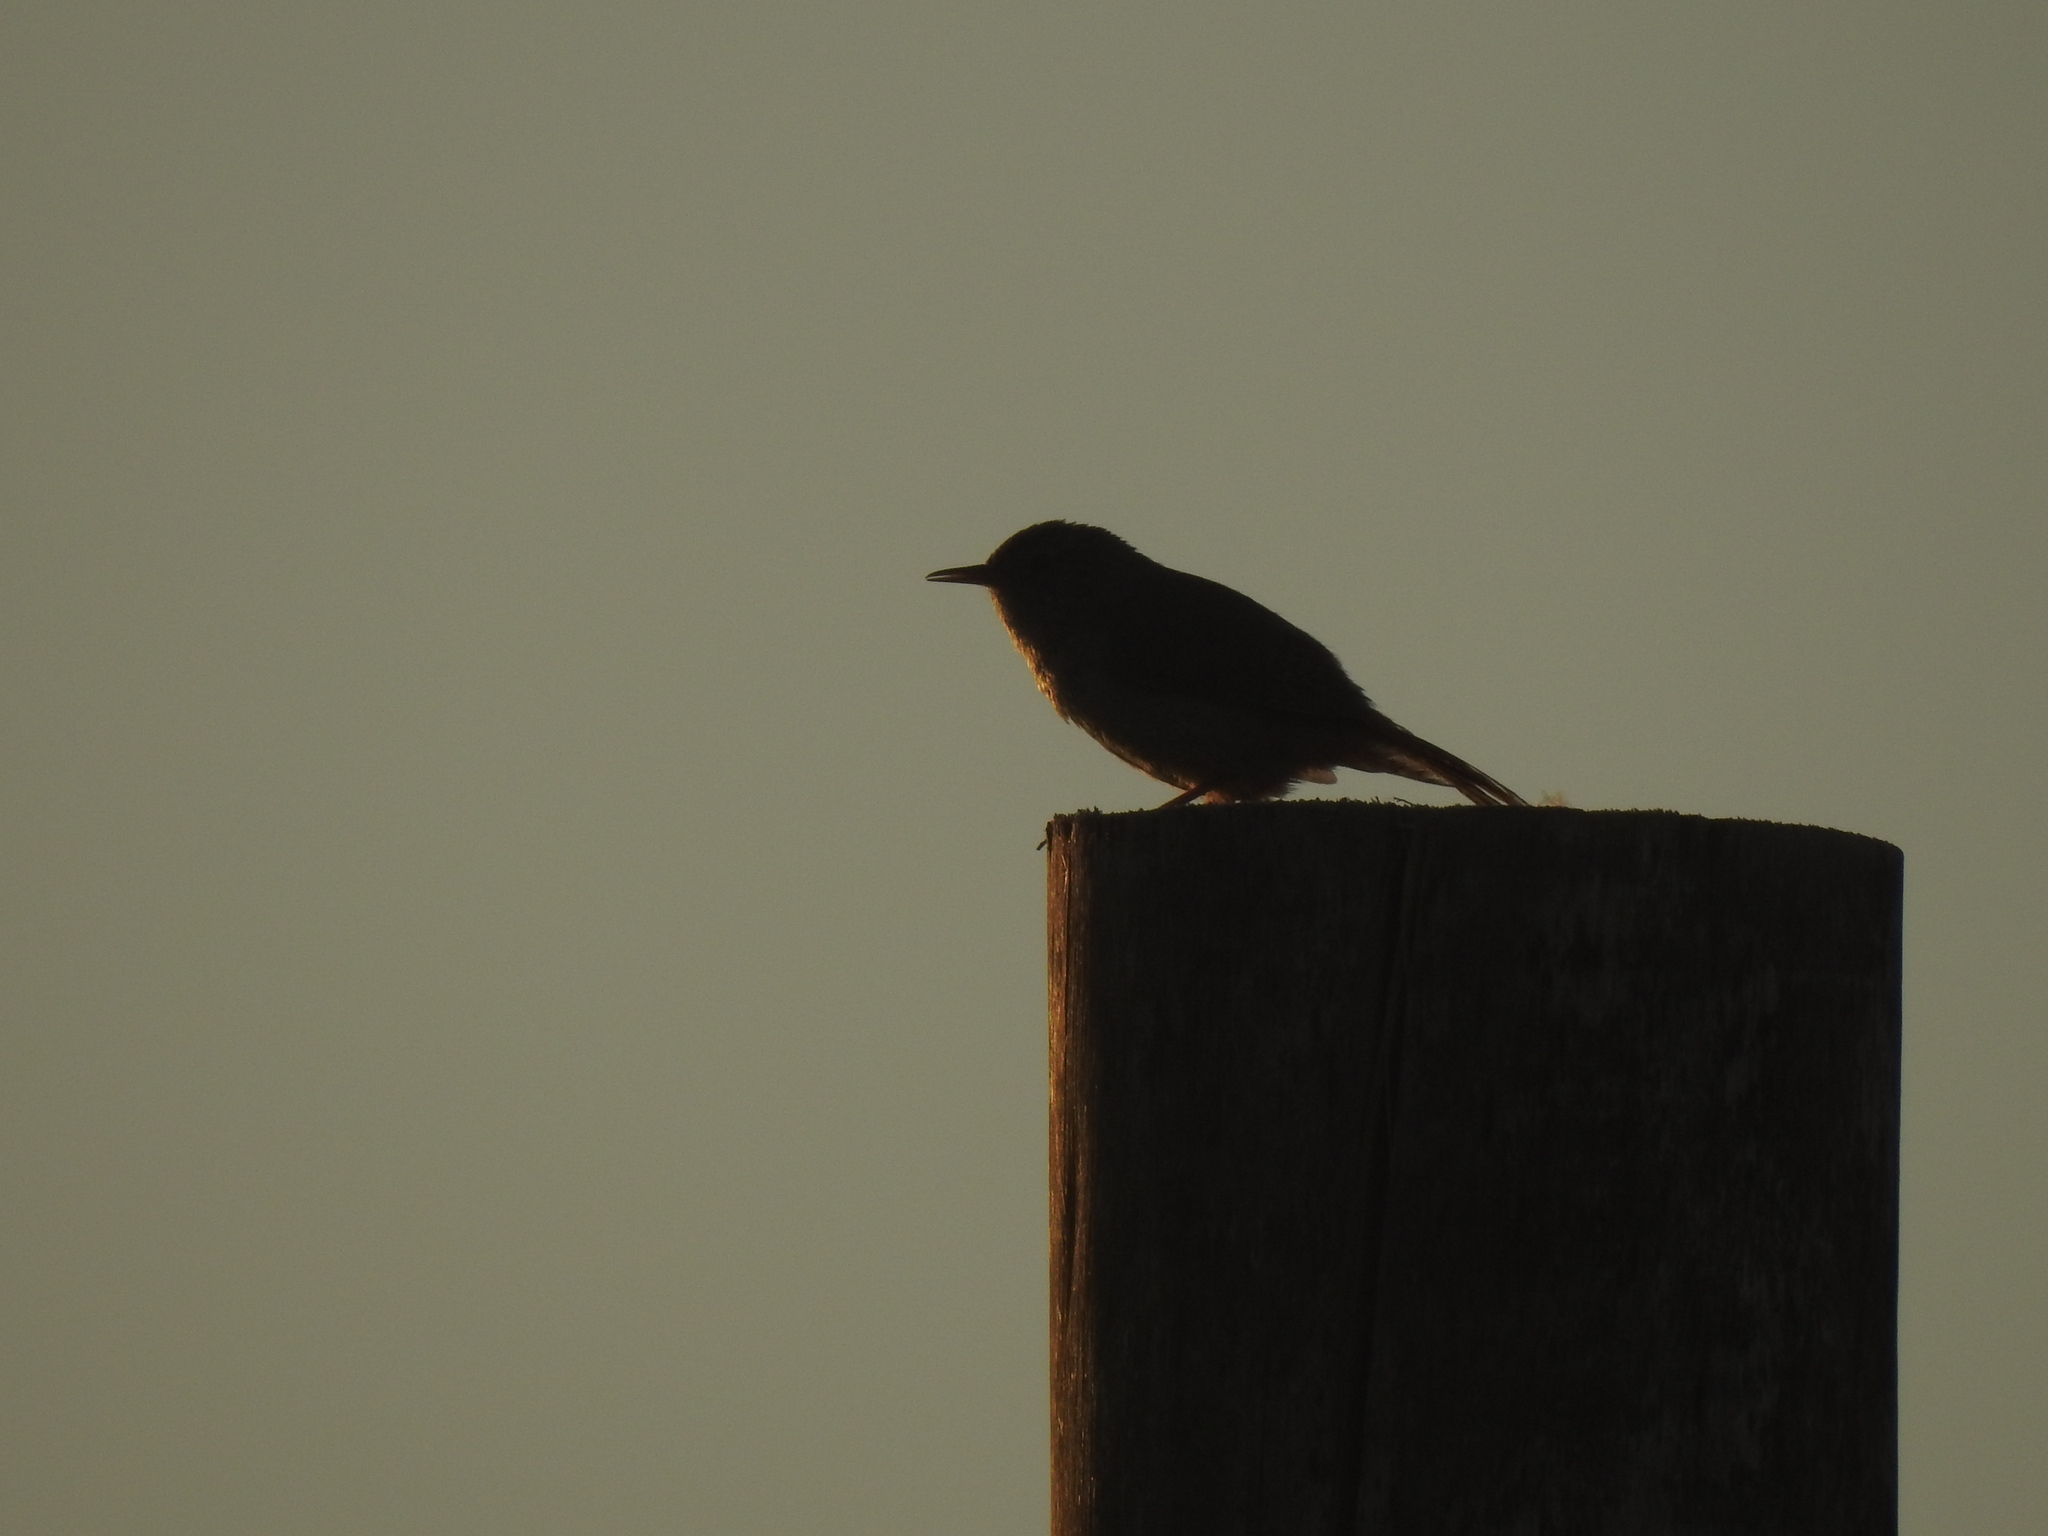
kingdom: Animalia
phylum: Chordata
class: Aves
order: Passeriformes
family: Troglodytidae
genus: Troglodytes
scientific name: Troglodytes aedon
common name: House wren
